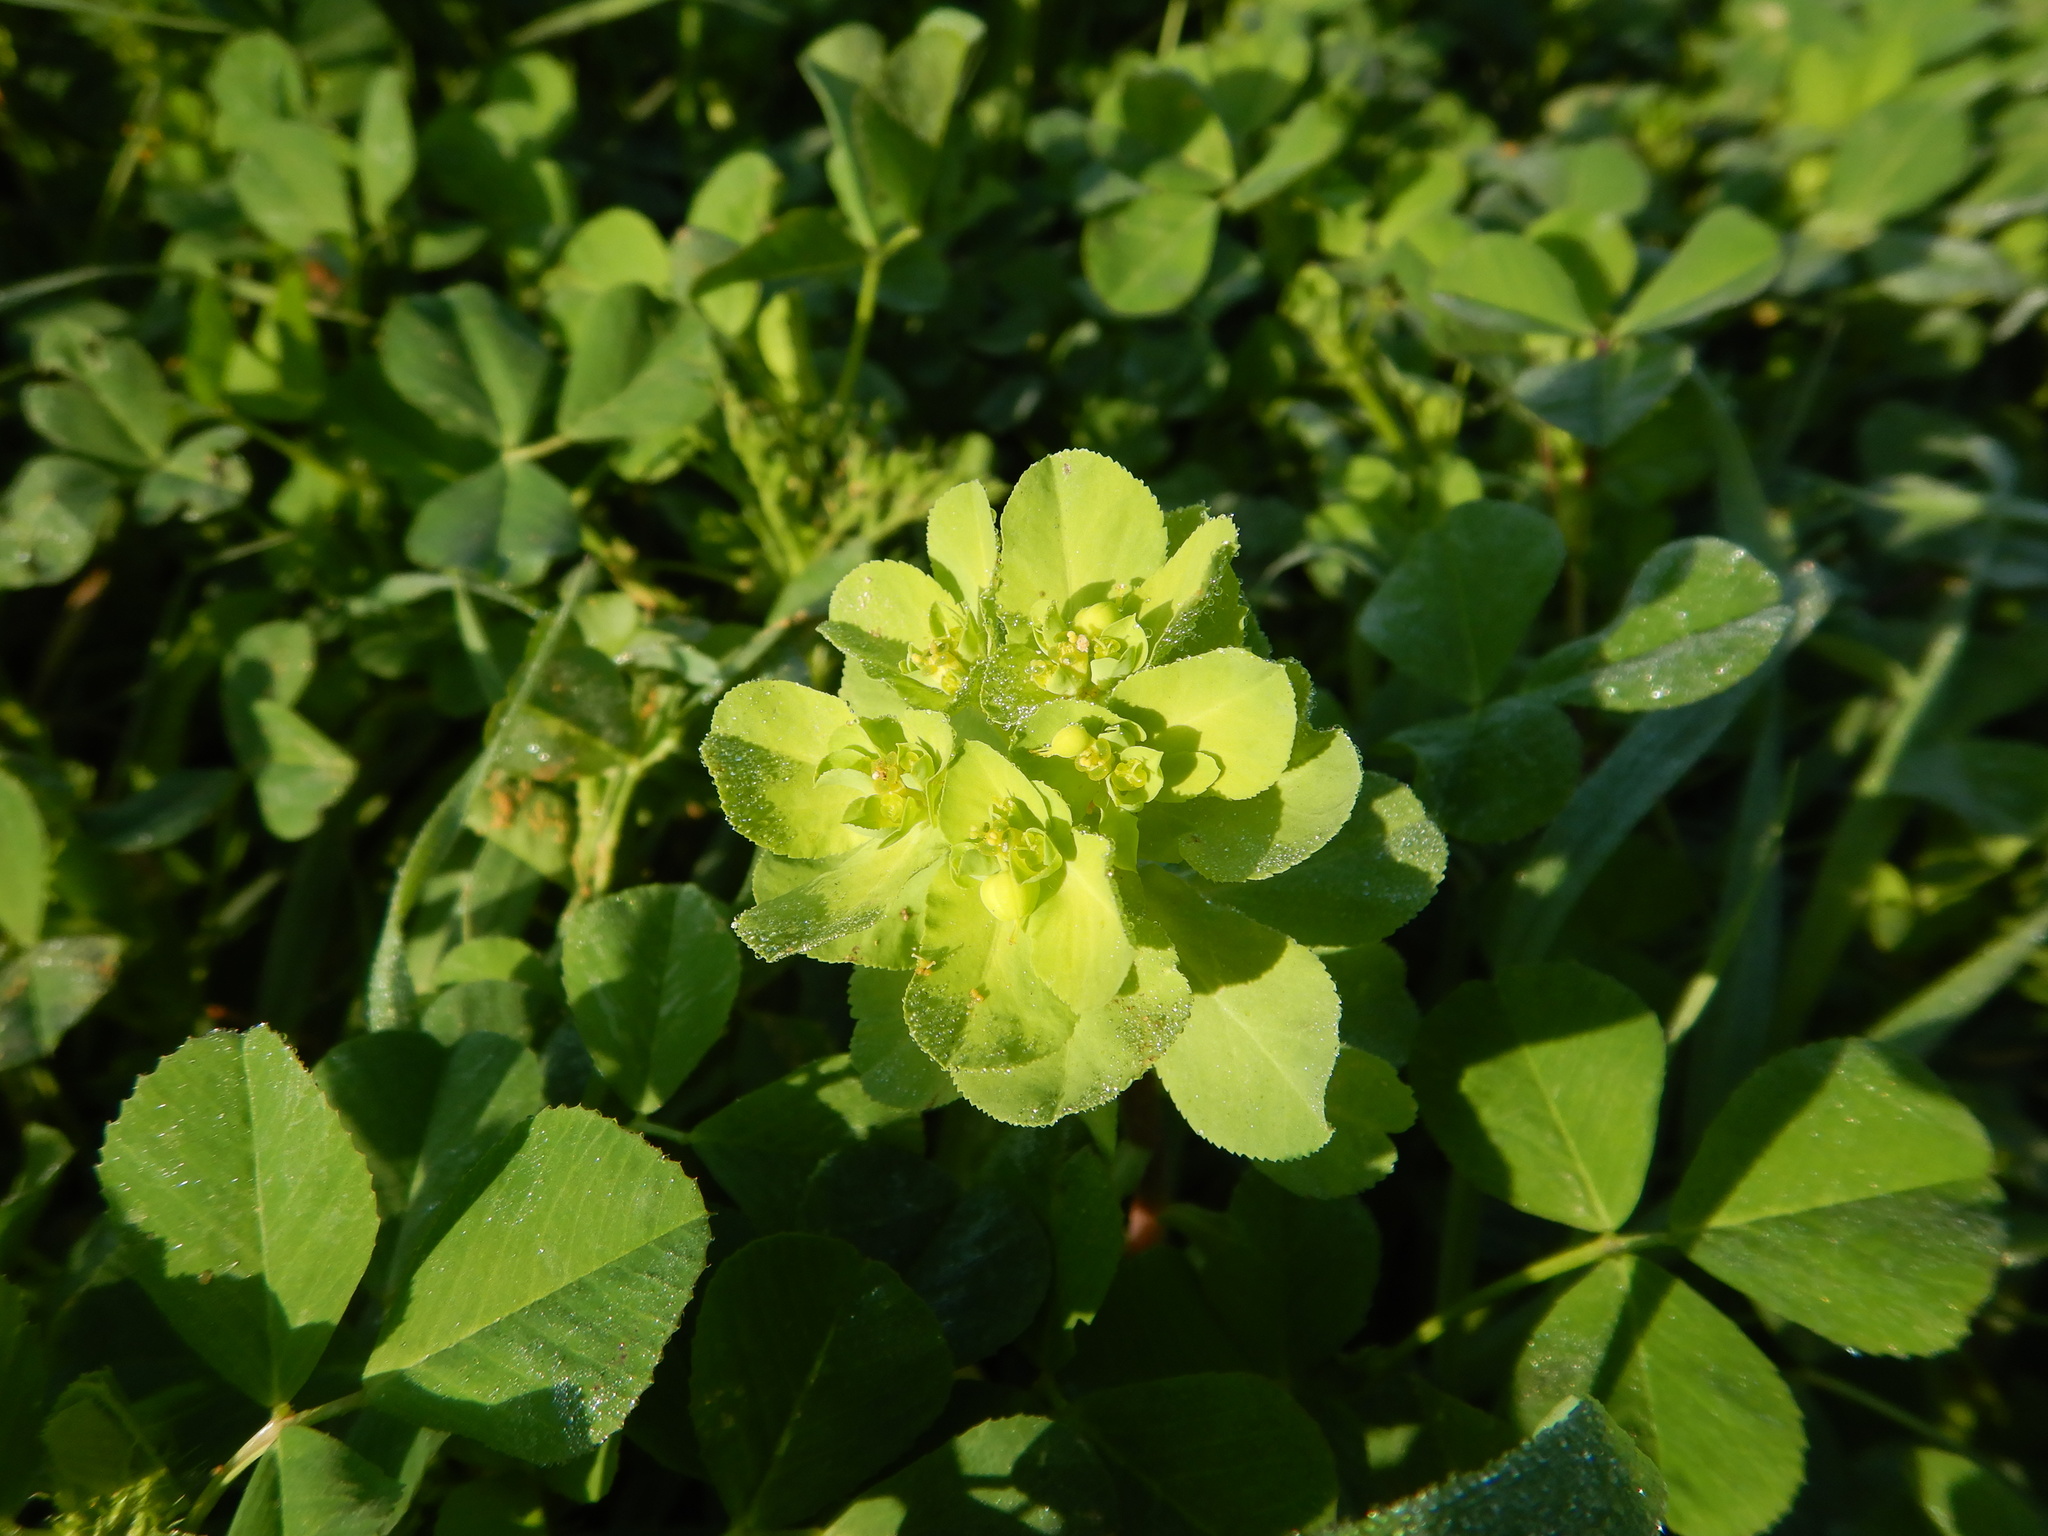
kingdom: Plantae
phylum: Tracheophyta
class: Magnoliopsida
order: Malpighiales
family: Euphorbiaceae
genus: Euphorbia
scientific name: Euphorbia helioscopia
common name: Sun spurge
